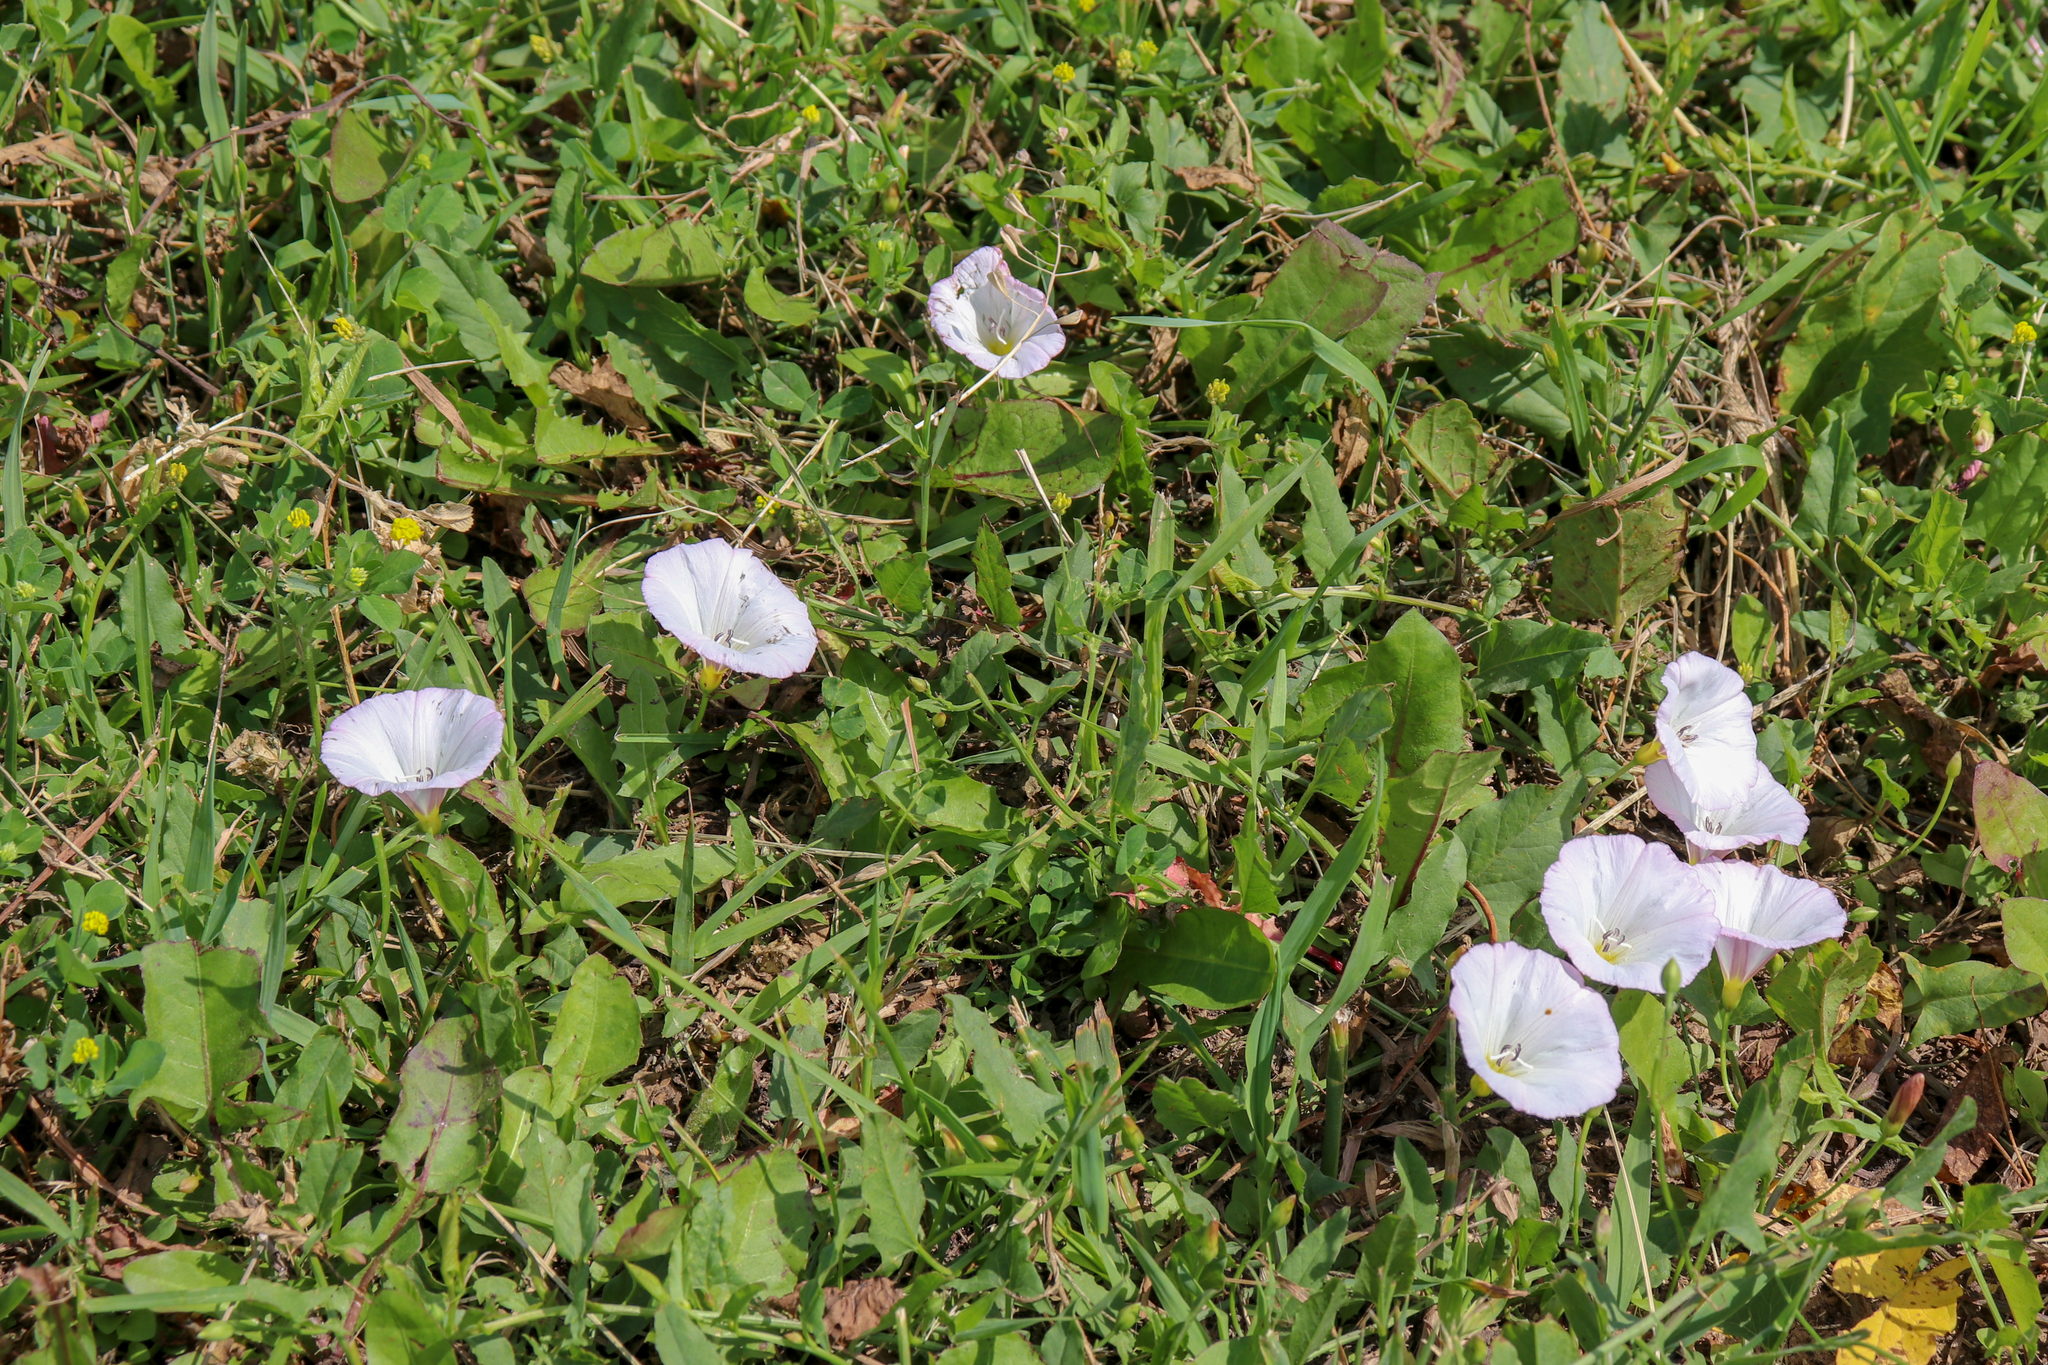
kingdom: Plantae
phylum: Tracheophyta
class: Magnoliopsida
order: Solanales
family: Convolvulaceae
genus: Convolvulus
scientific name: Convolvulus arvensis
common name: Field bindweed
